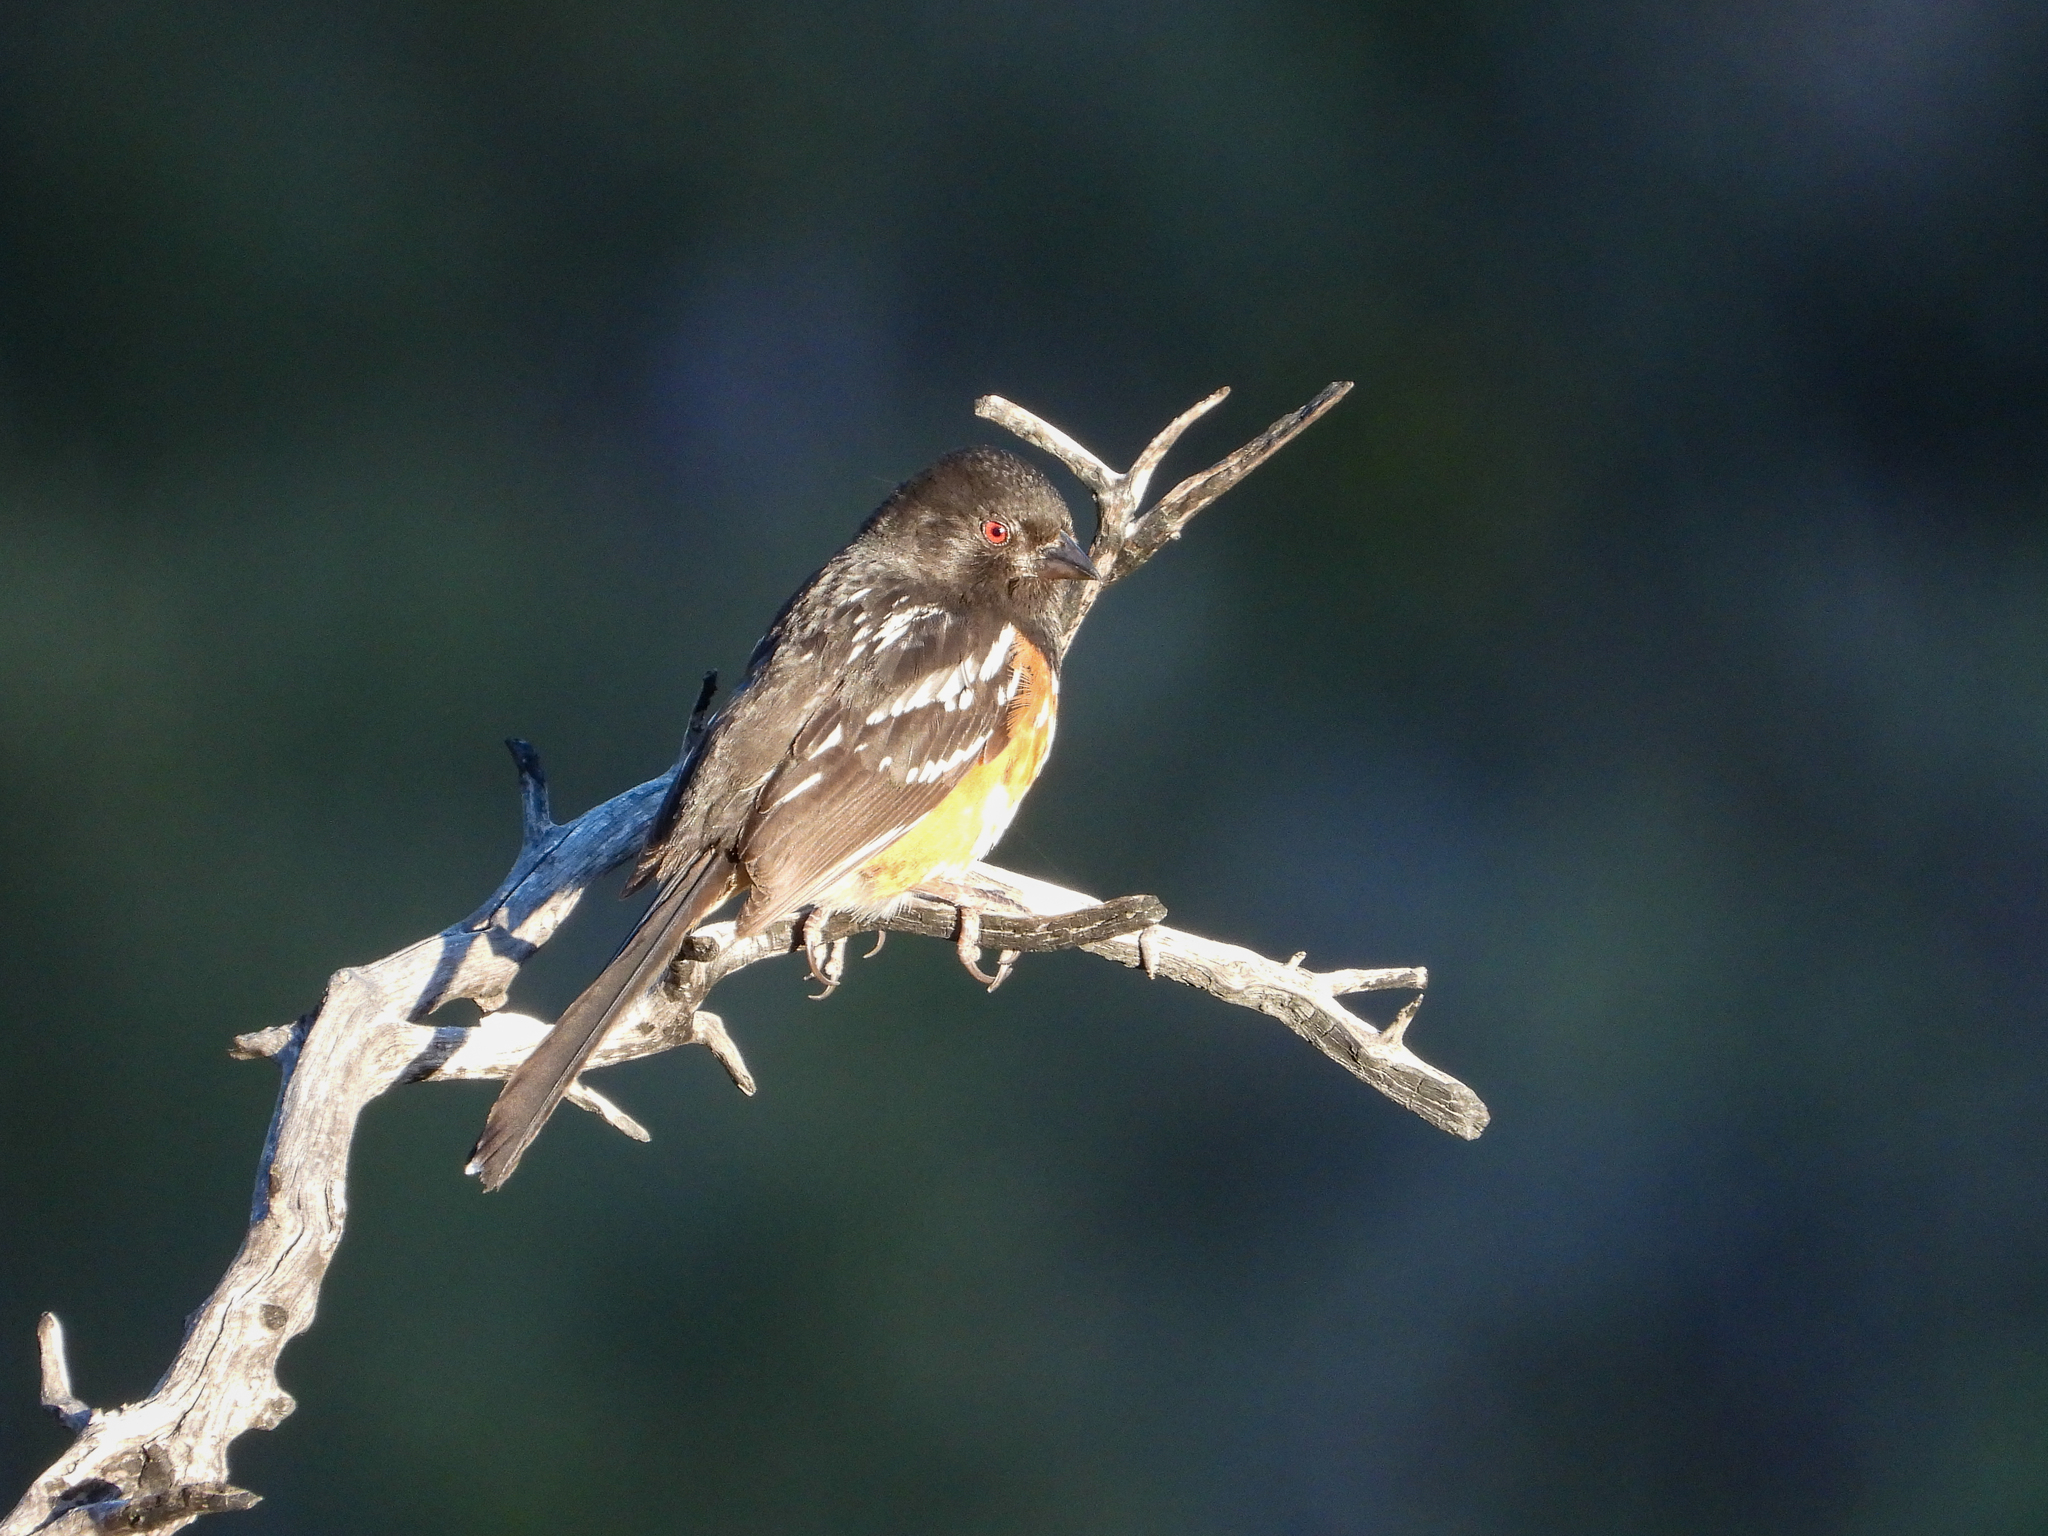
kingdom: Animalia
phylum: Chordata
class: Aves
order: Passeriformes
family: Passerellidae
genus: Pipilo
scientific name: Pipilo maculatus
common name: Spotted towhee
